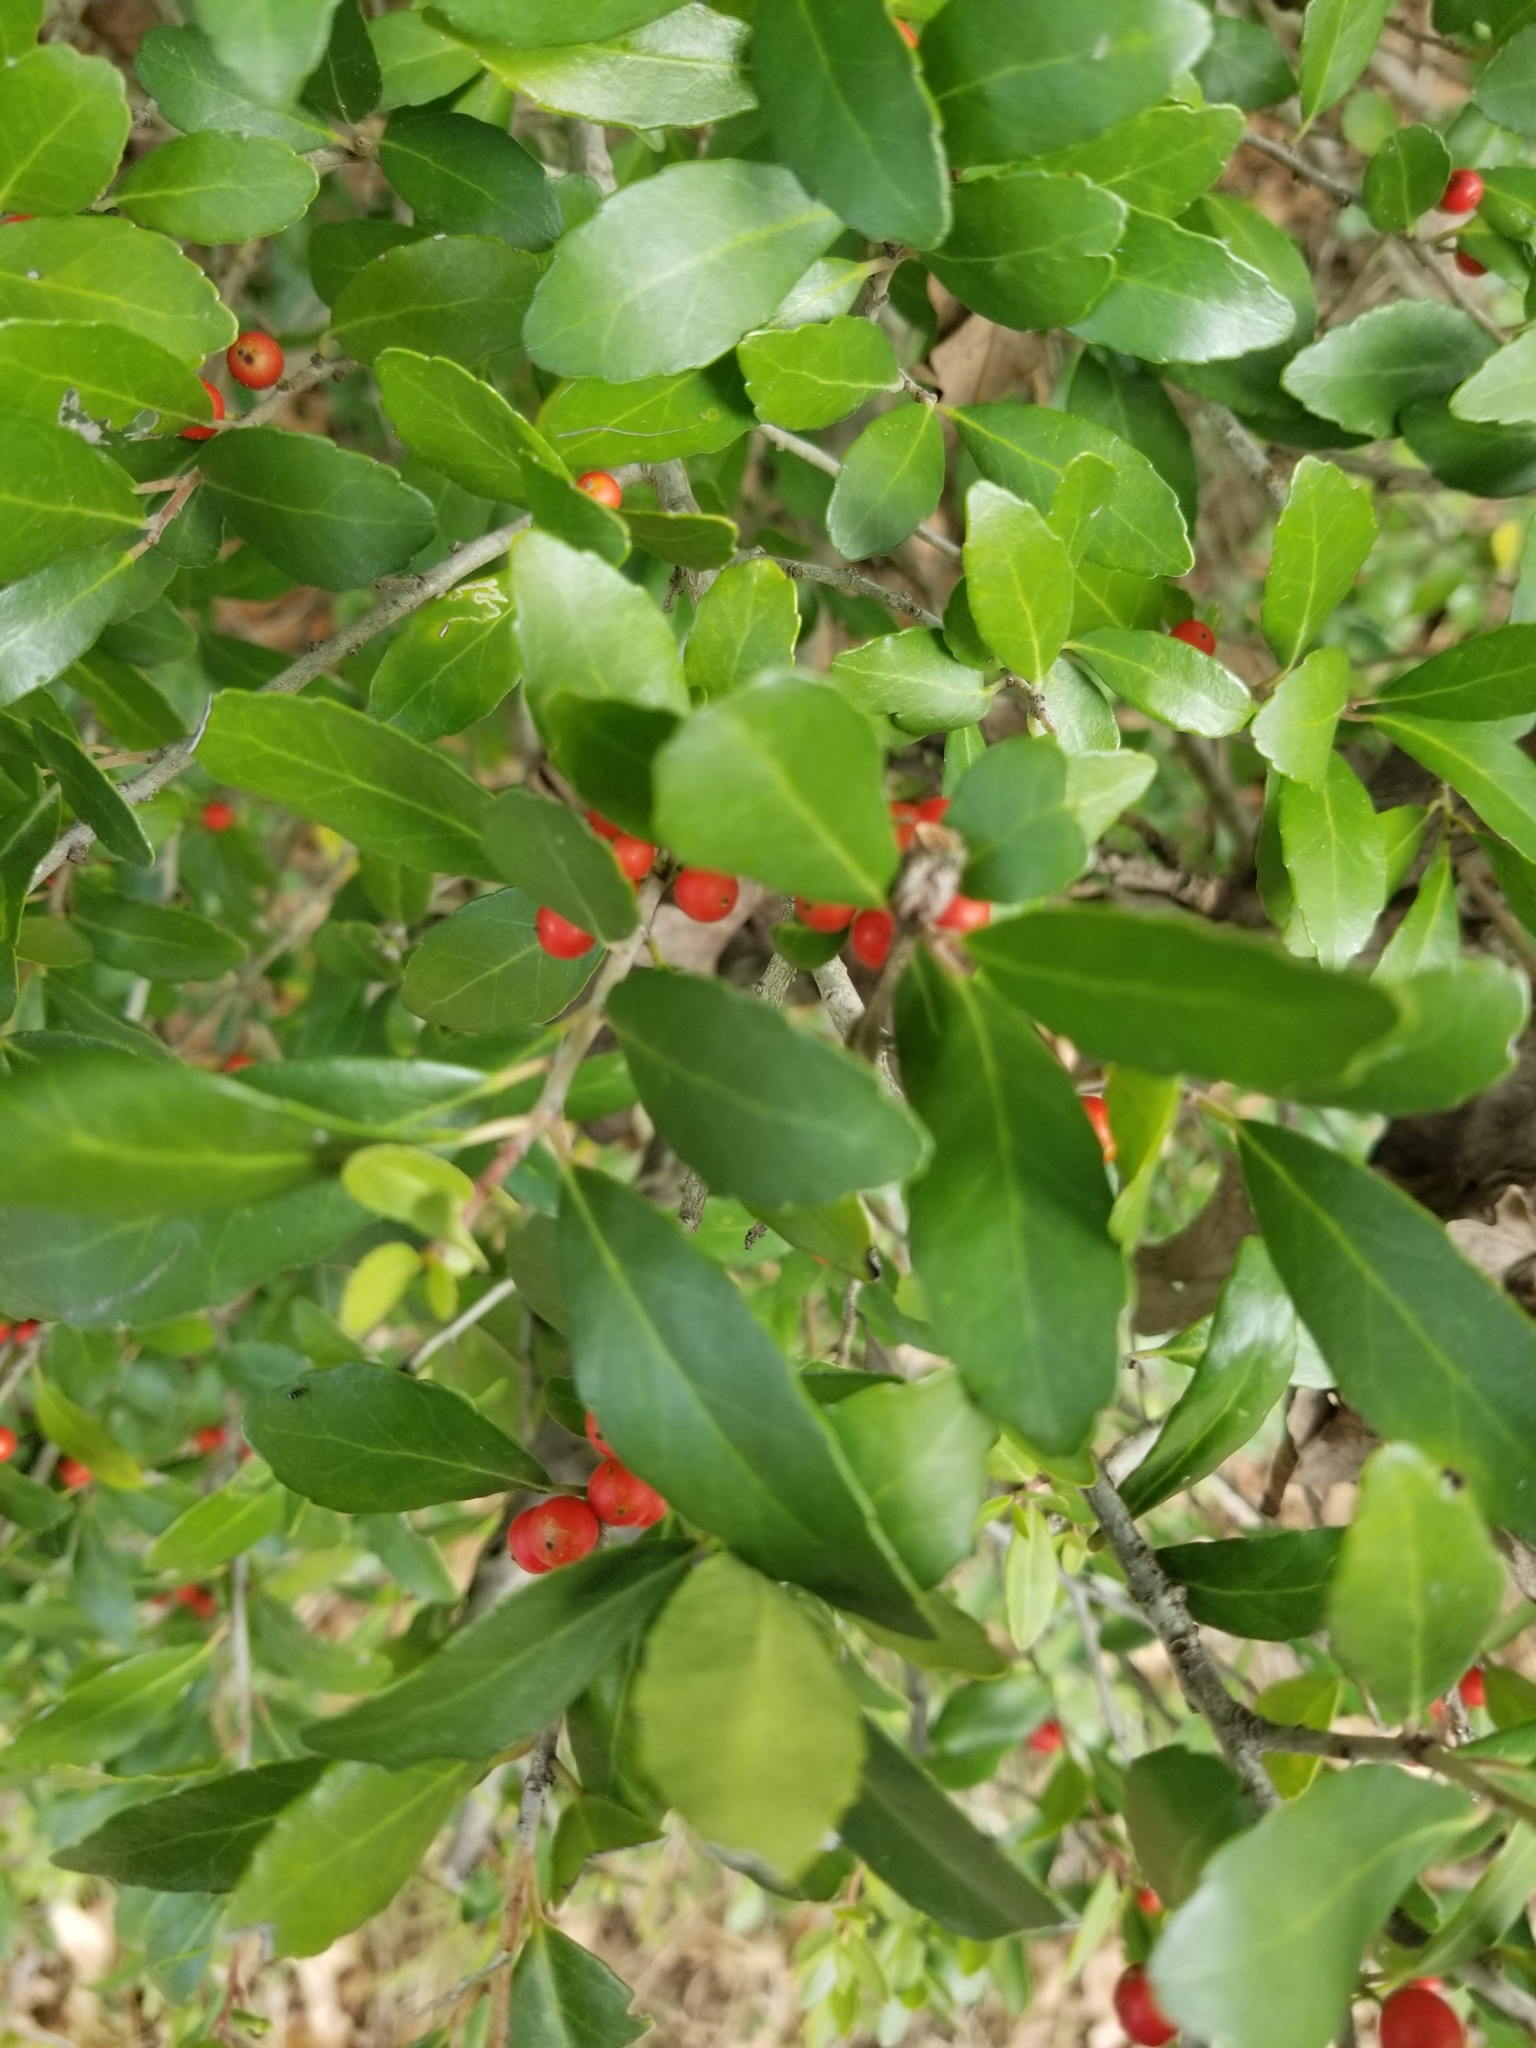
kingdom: Plantae
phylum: Tracheophyta
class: Magnoliopsida
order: Aquifoliales
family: Aquifoliaceae
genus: Ilex
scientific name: Ilex vomitoria
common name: Yaupon holly
